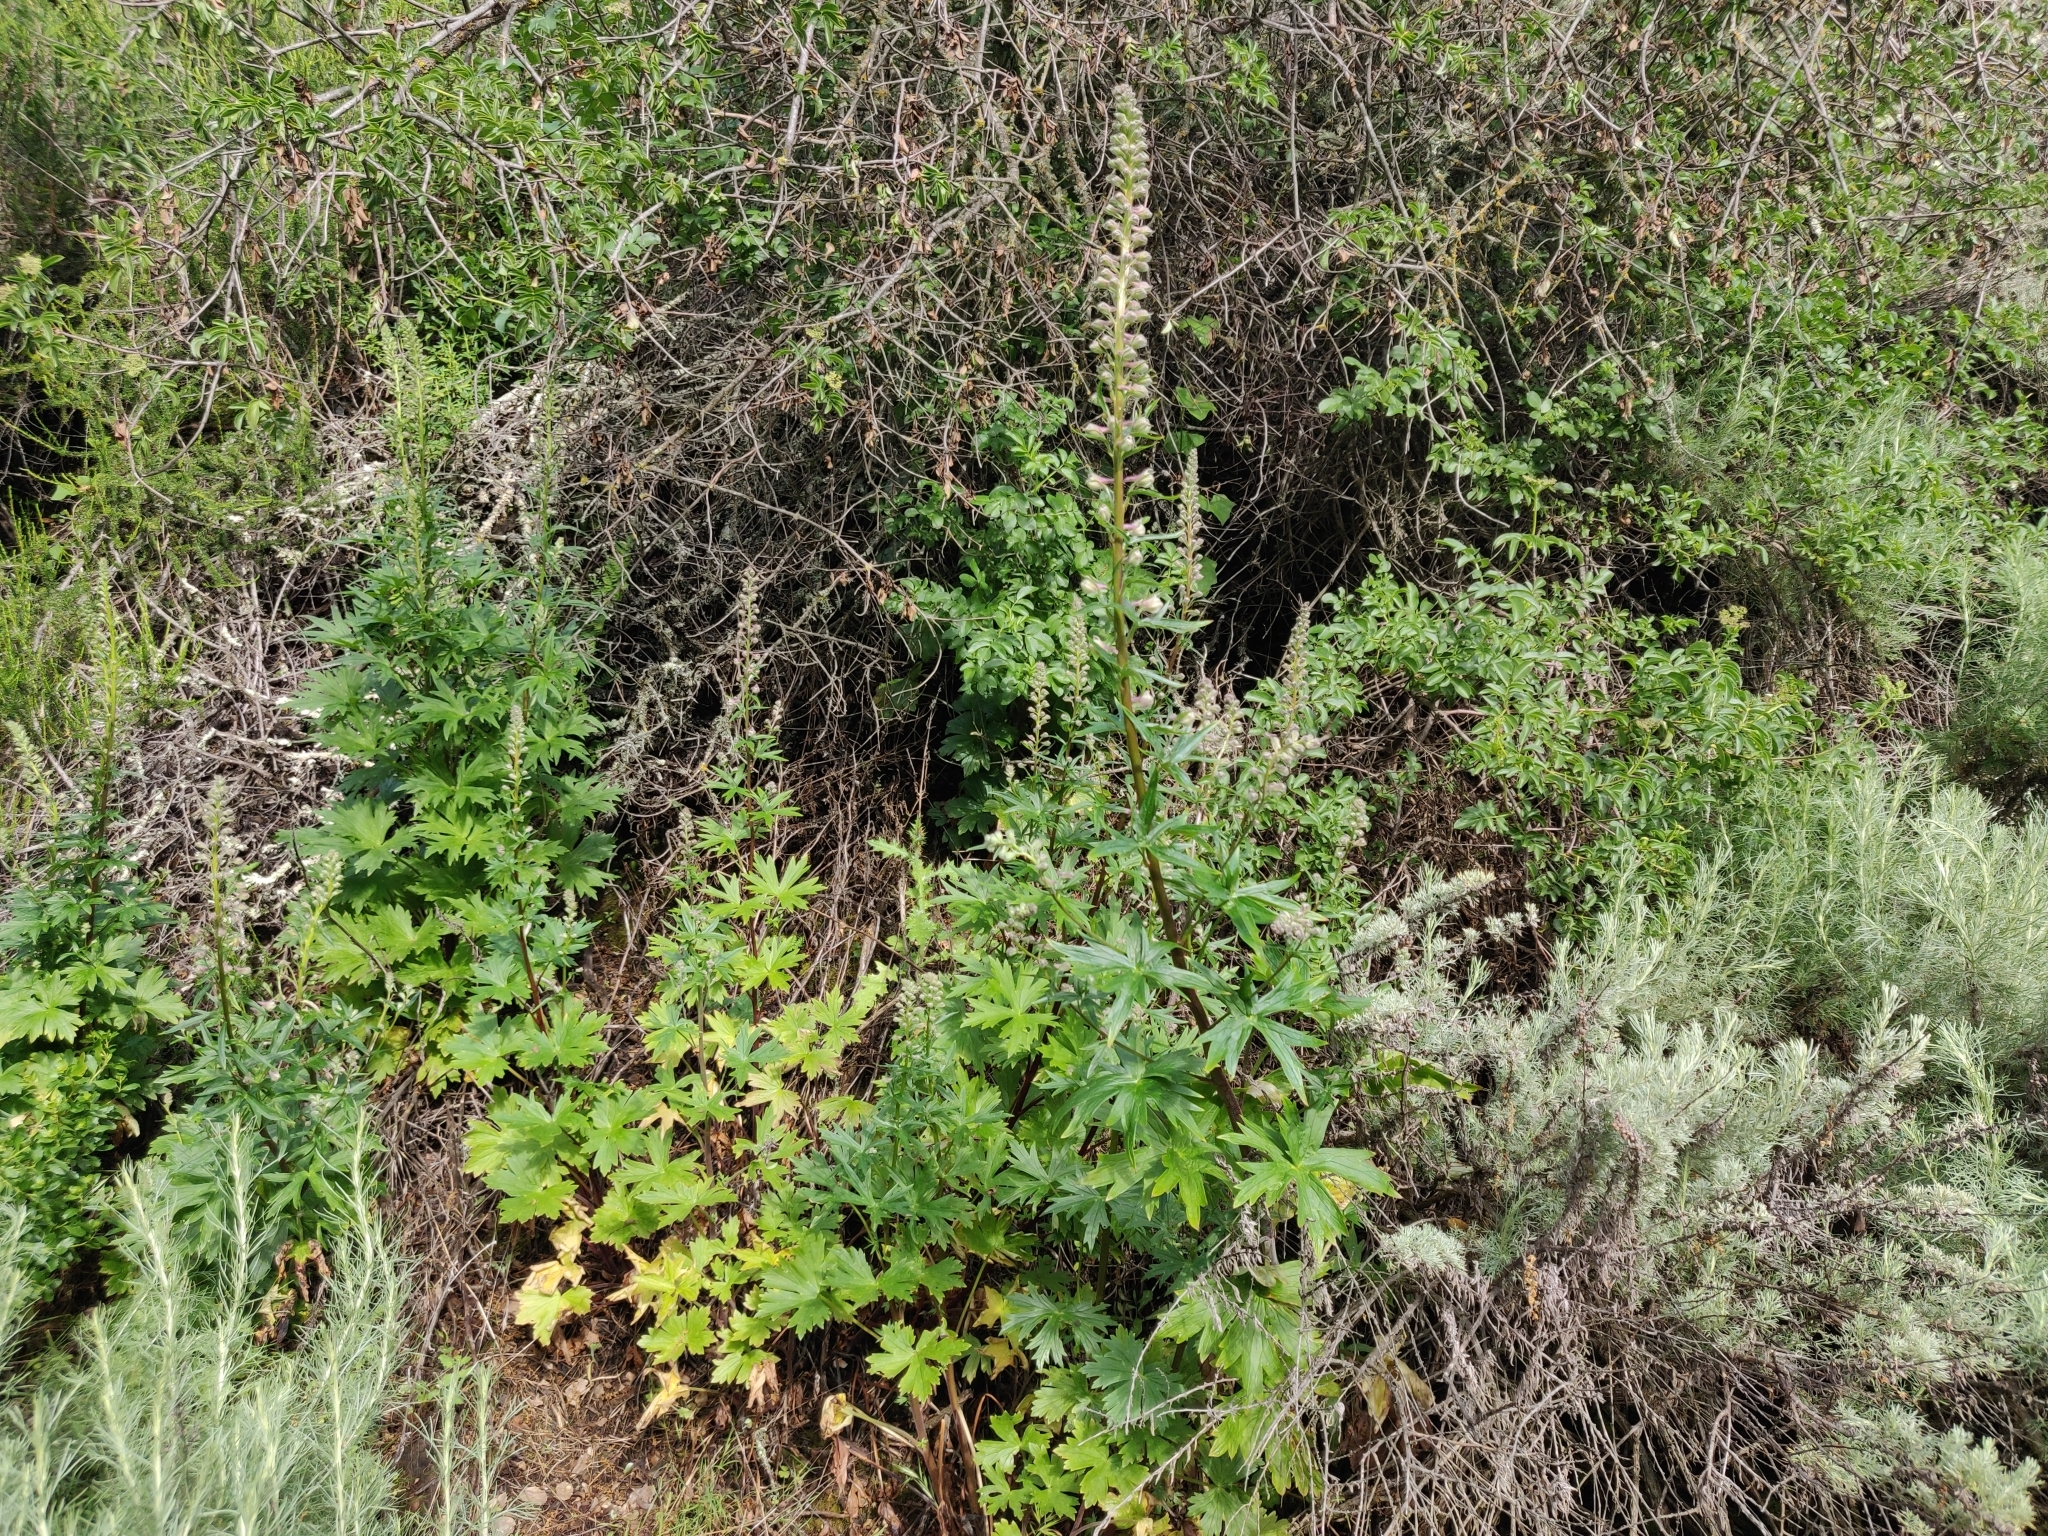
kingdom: Plantae
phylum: Tracheophyta
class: Magnoliopsida
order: Ranunculales
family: Ranunculaceae
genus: Delphinium
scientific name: Delphinium californicum
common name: California larkspur
